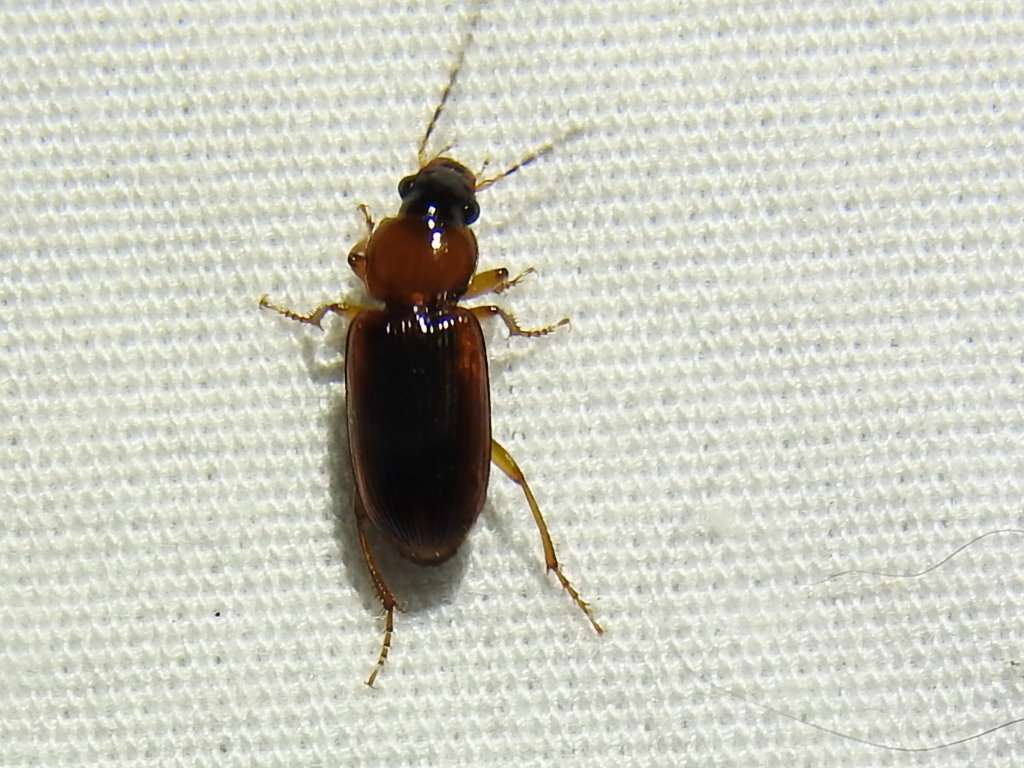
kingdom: Animalia
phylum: Arthropoda
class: Insecta
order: Coleoptera
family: Carabidae
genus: Stenolophus
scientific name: Stenolophus dissimilis
